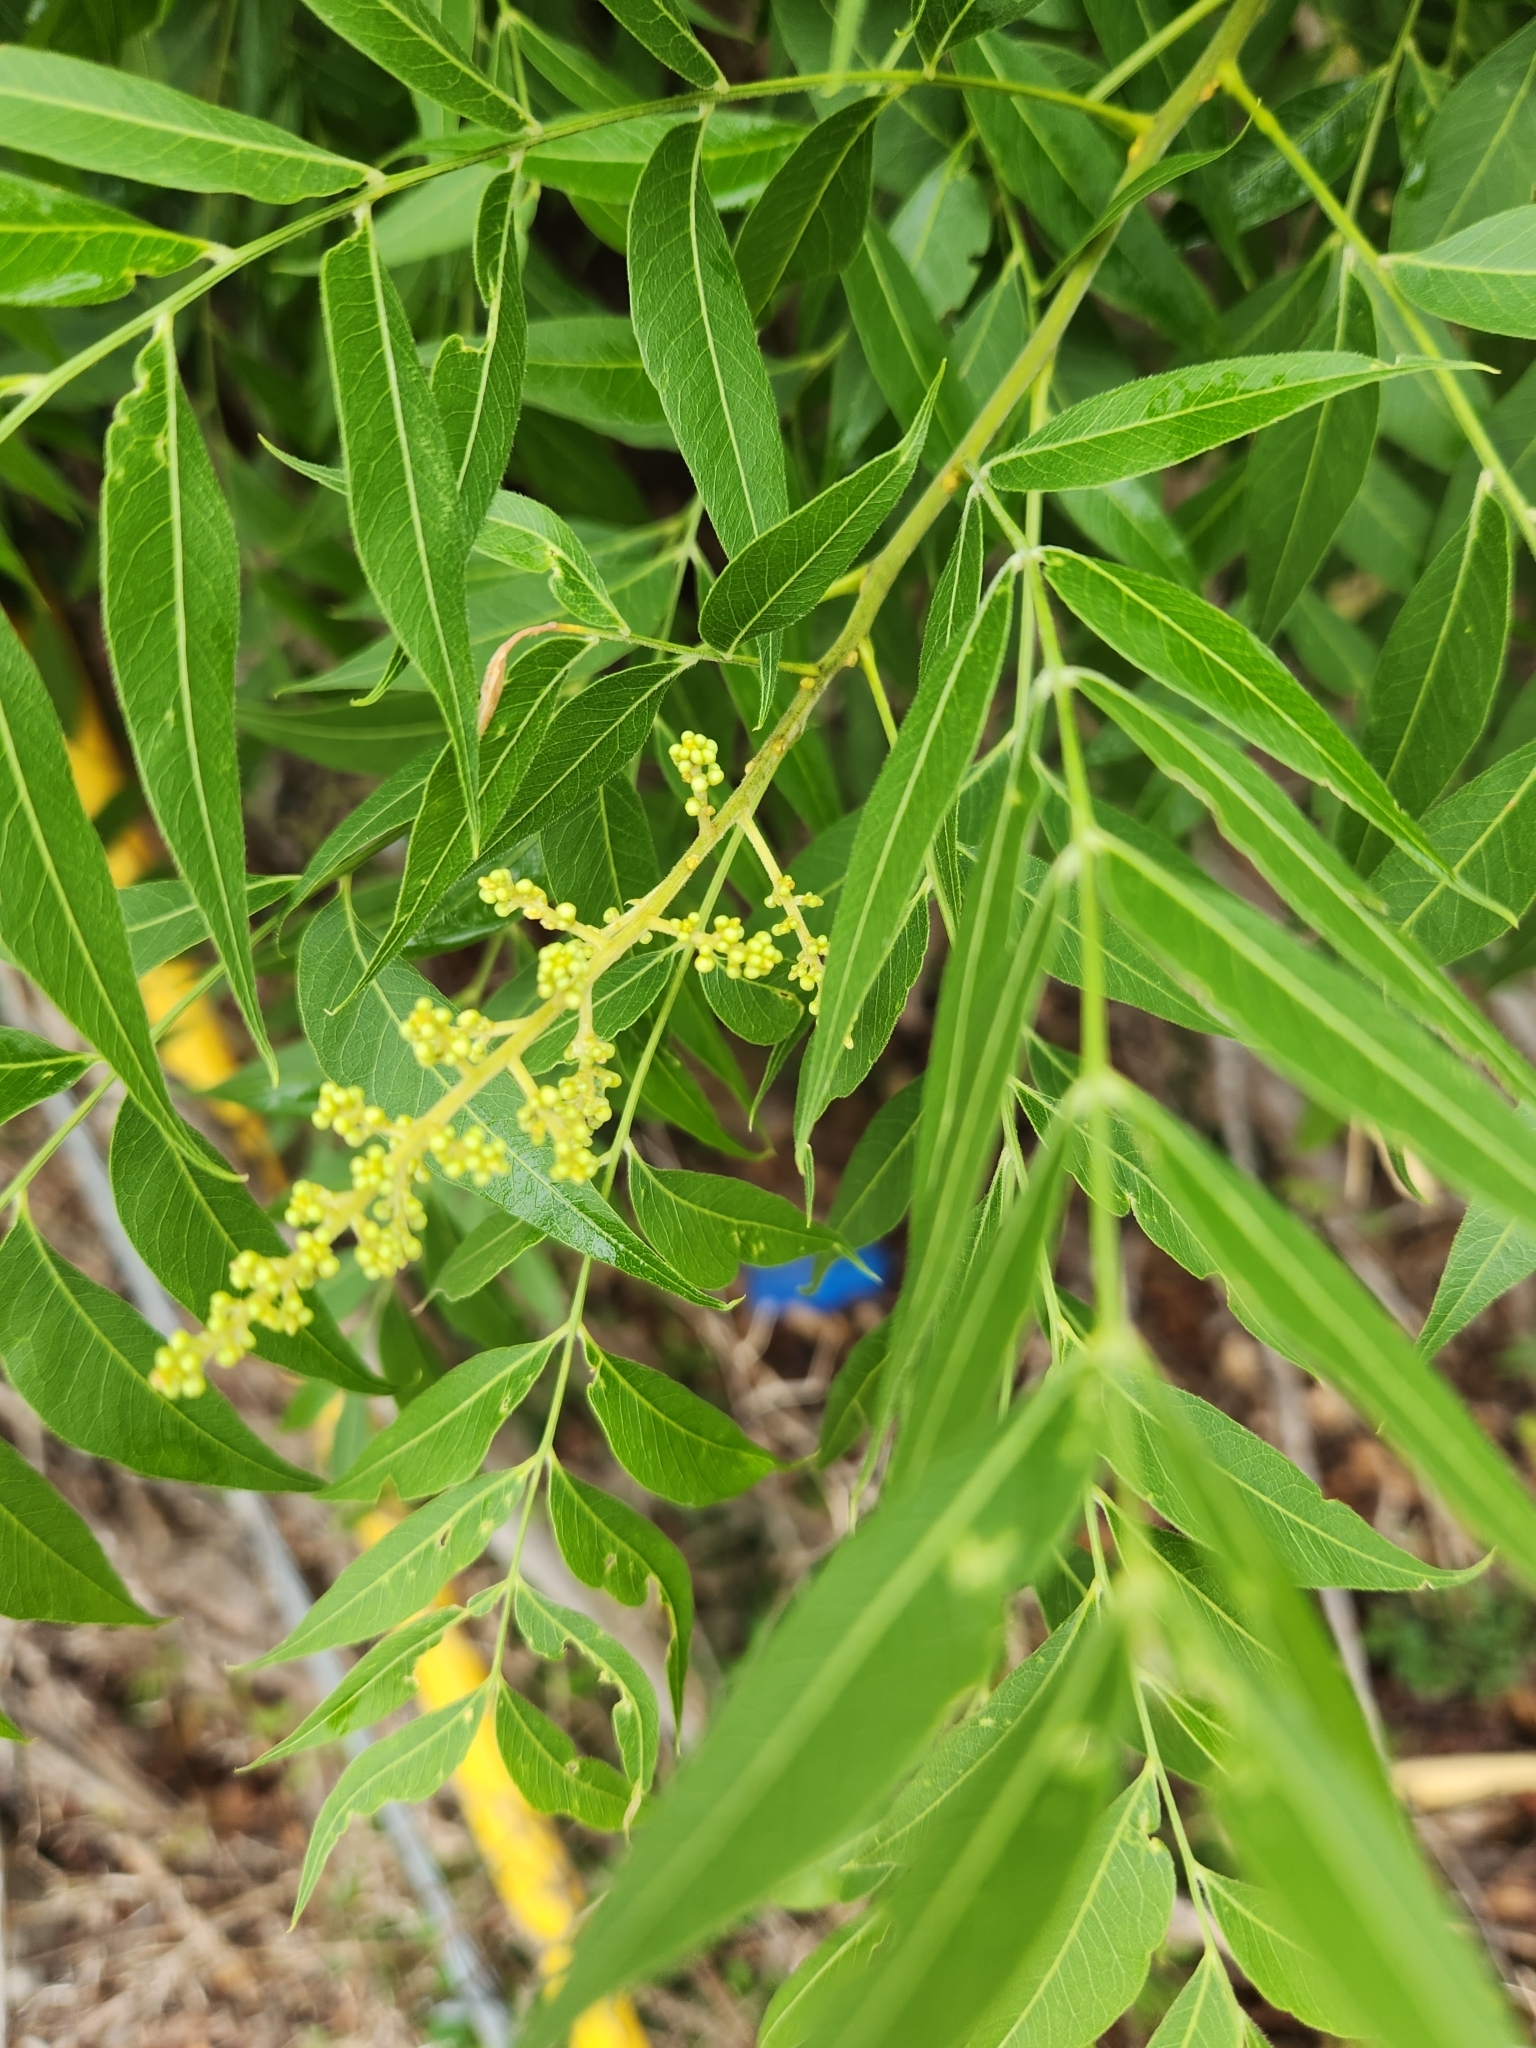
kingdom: Plantae
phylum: Tracheophyta
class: Magnoliopsida
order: Sapindales
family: Sapindaceae
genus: Sapindus
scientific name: Sapindus drummondii
